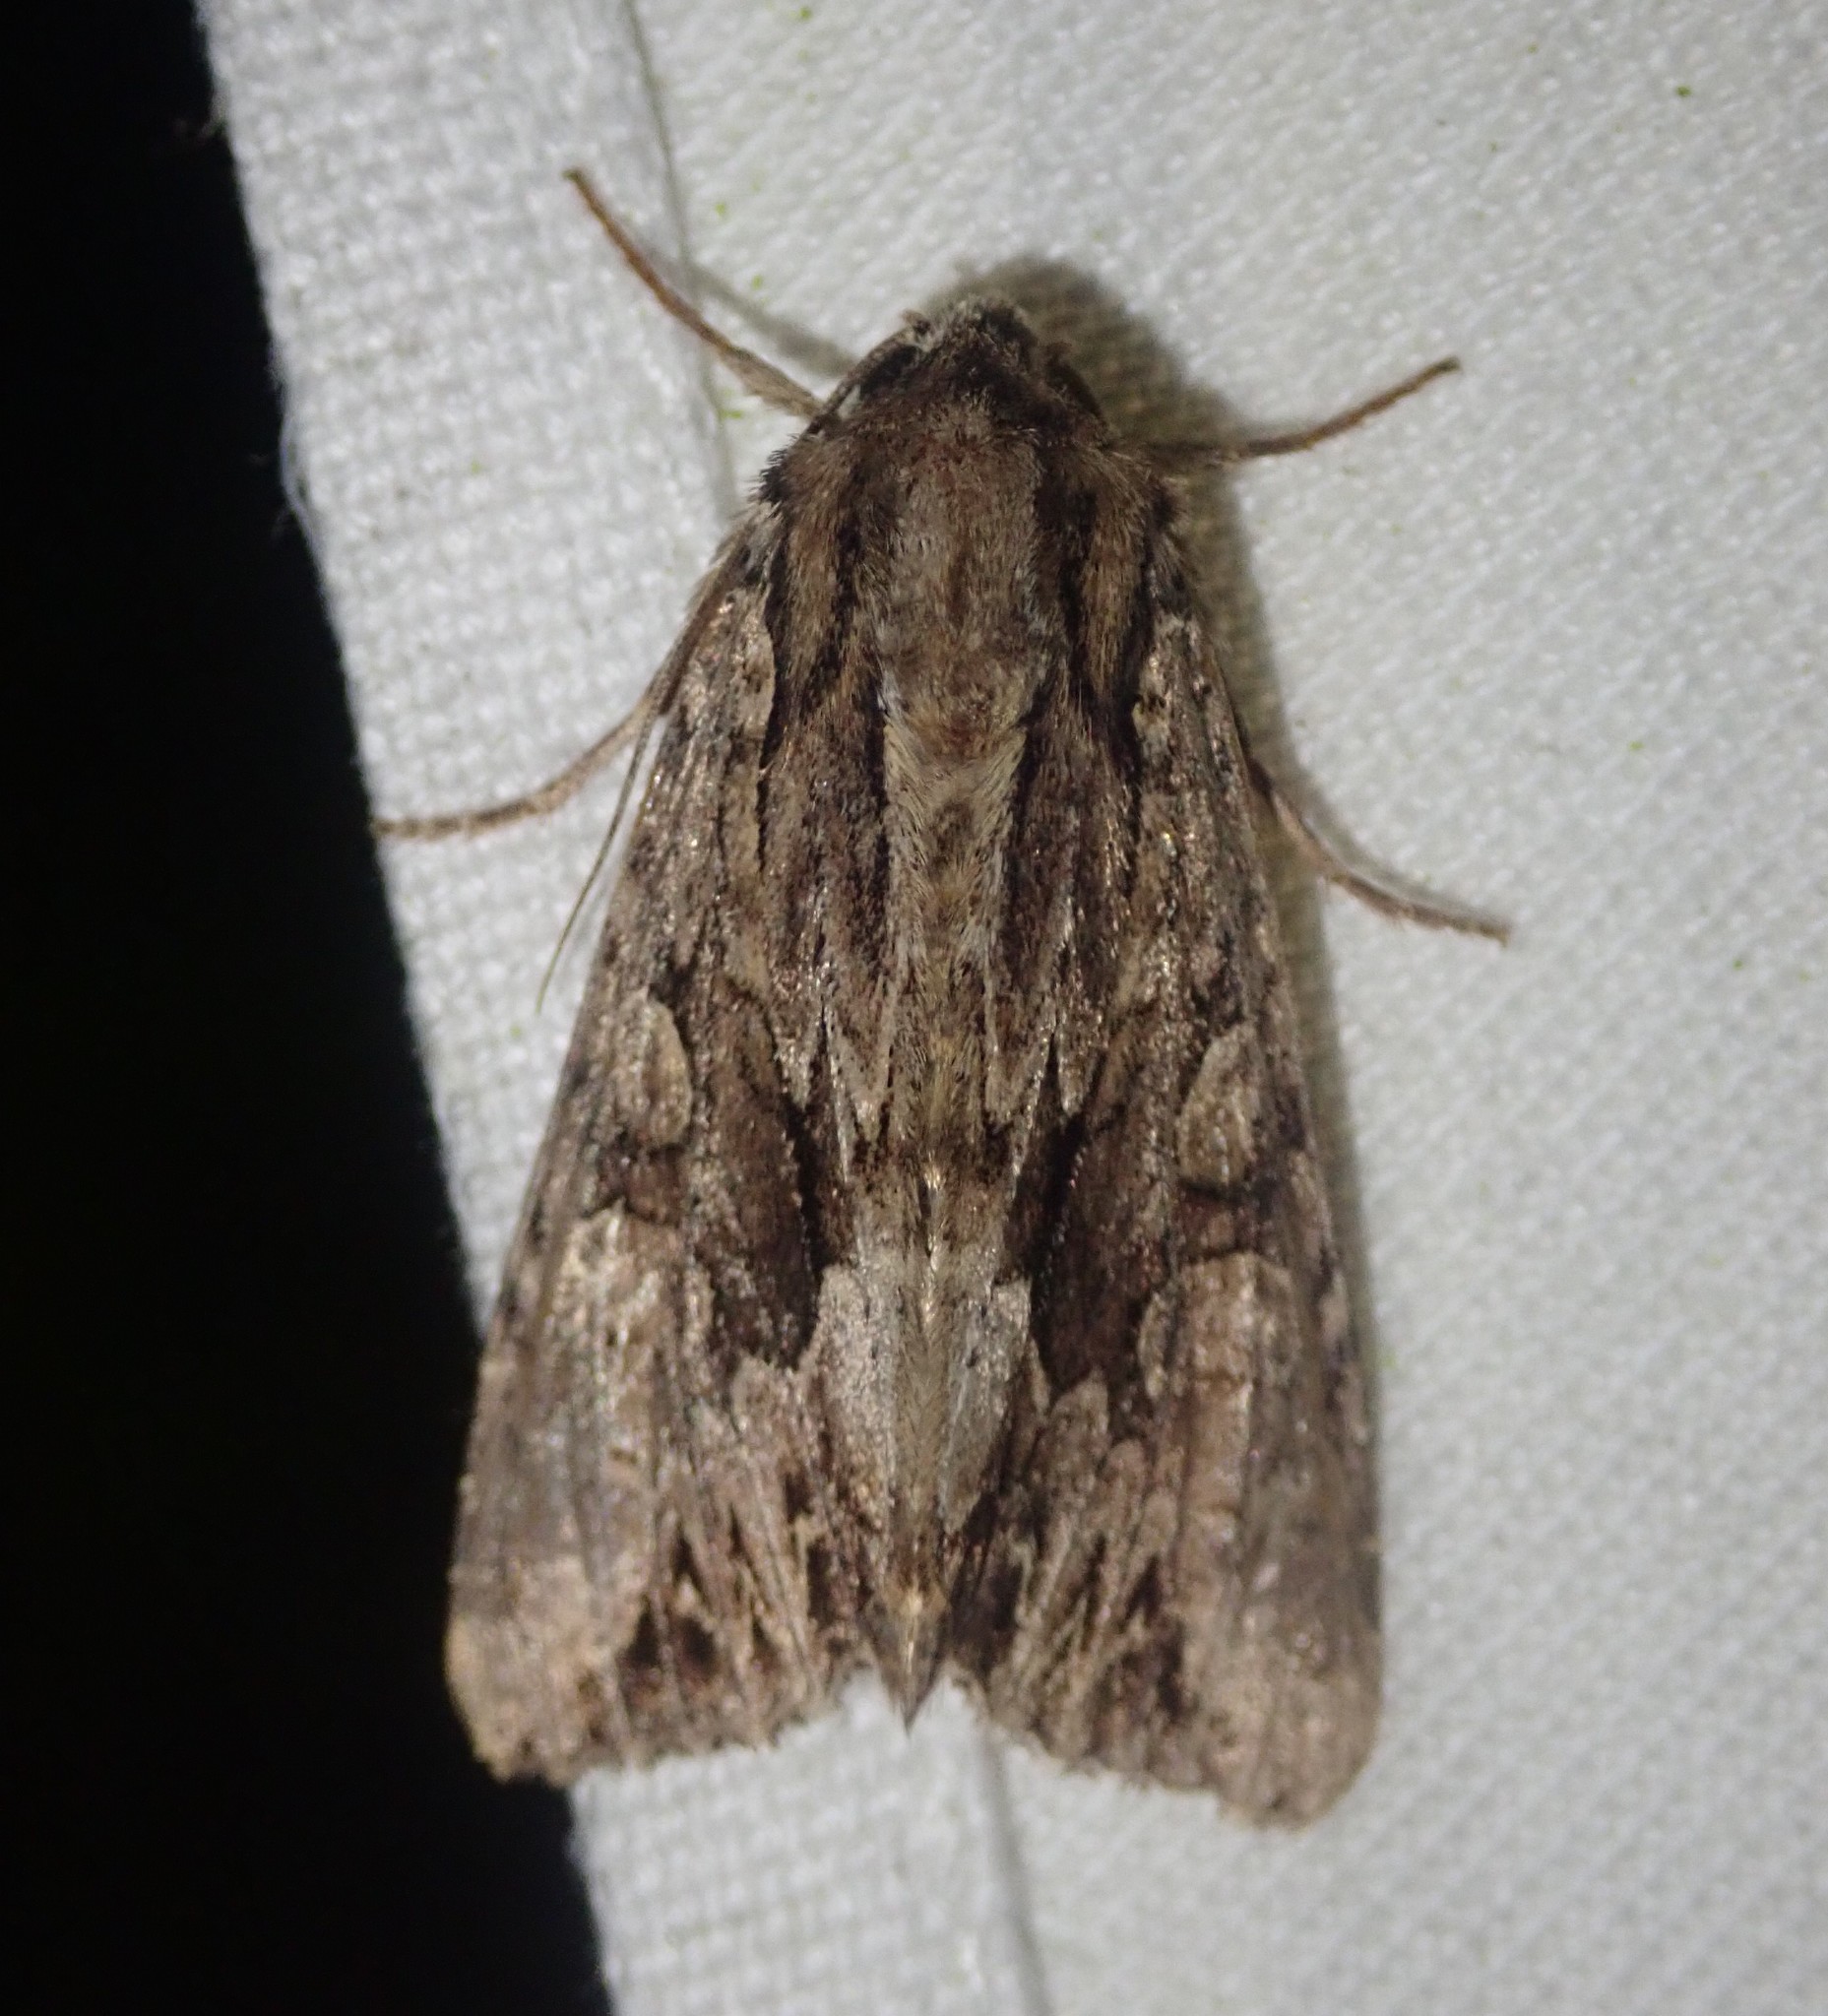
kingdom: Animalia
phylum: Arthropoda
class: Insecta
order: Lepidoptera
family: Noctuidae
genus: Apamea
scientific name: Apamea monoglypha
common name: Dark arches
